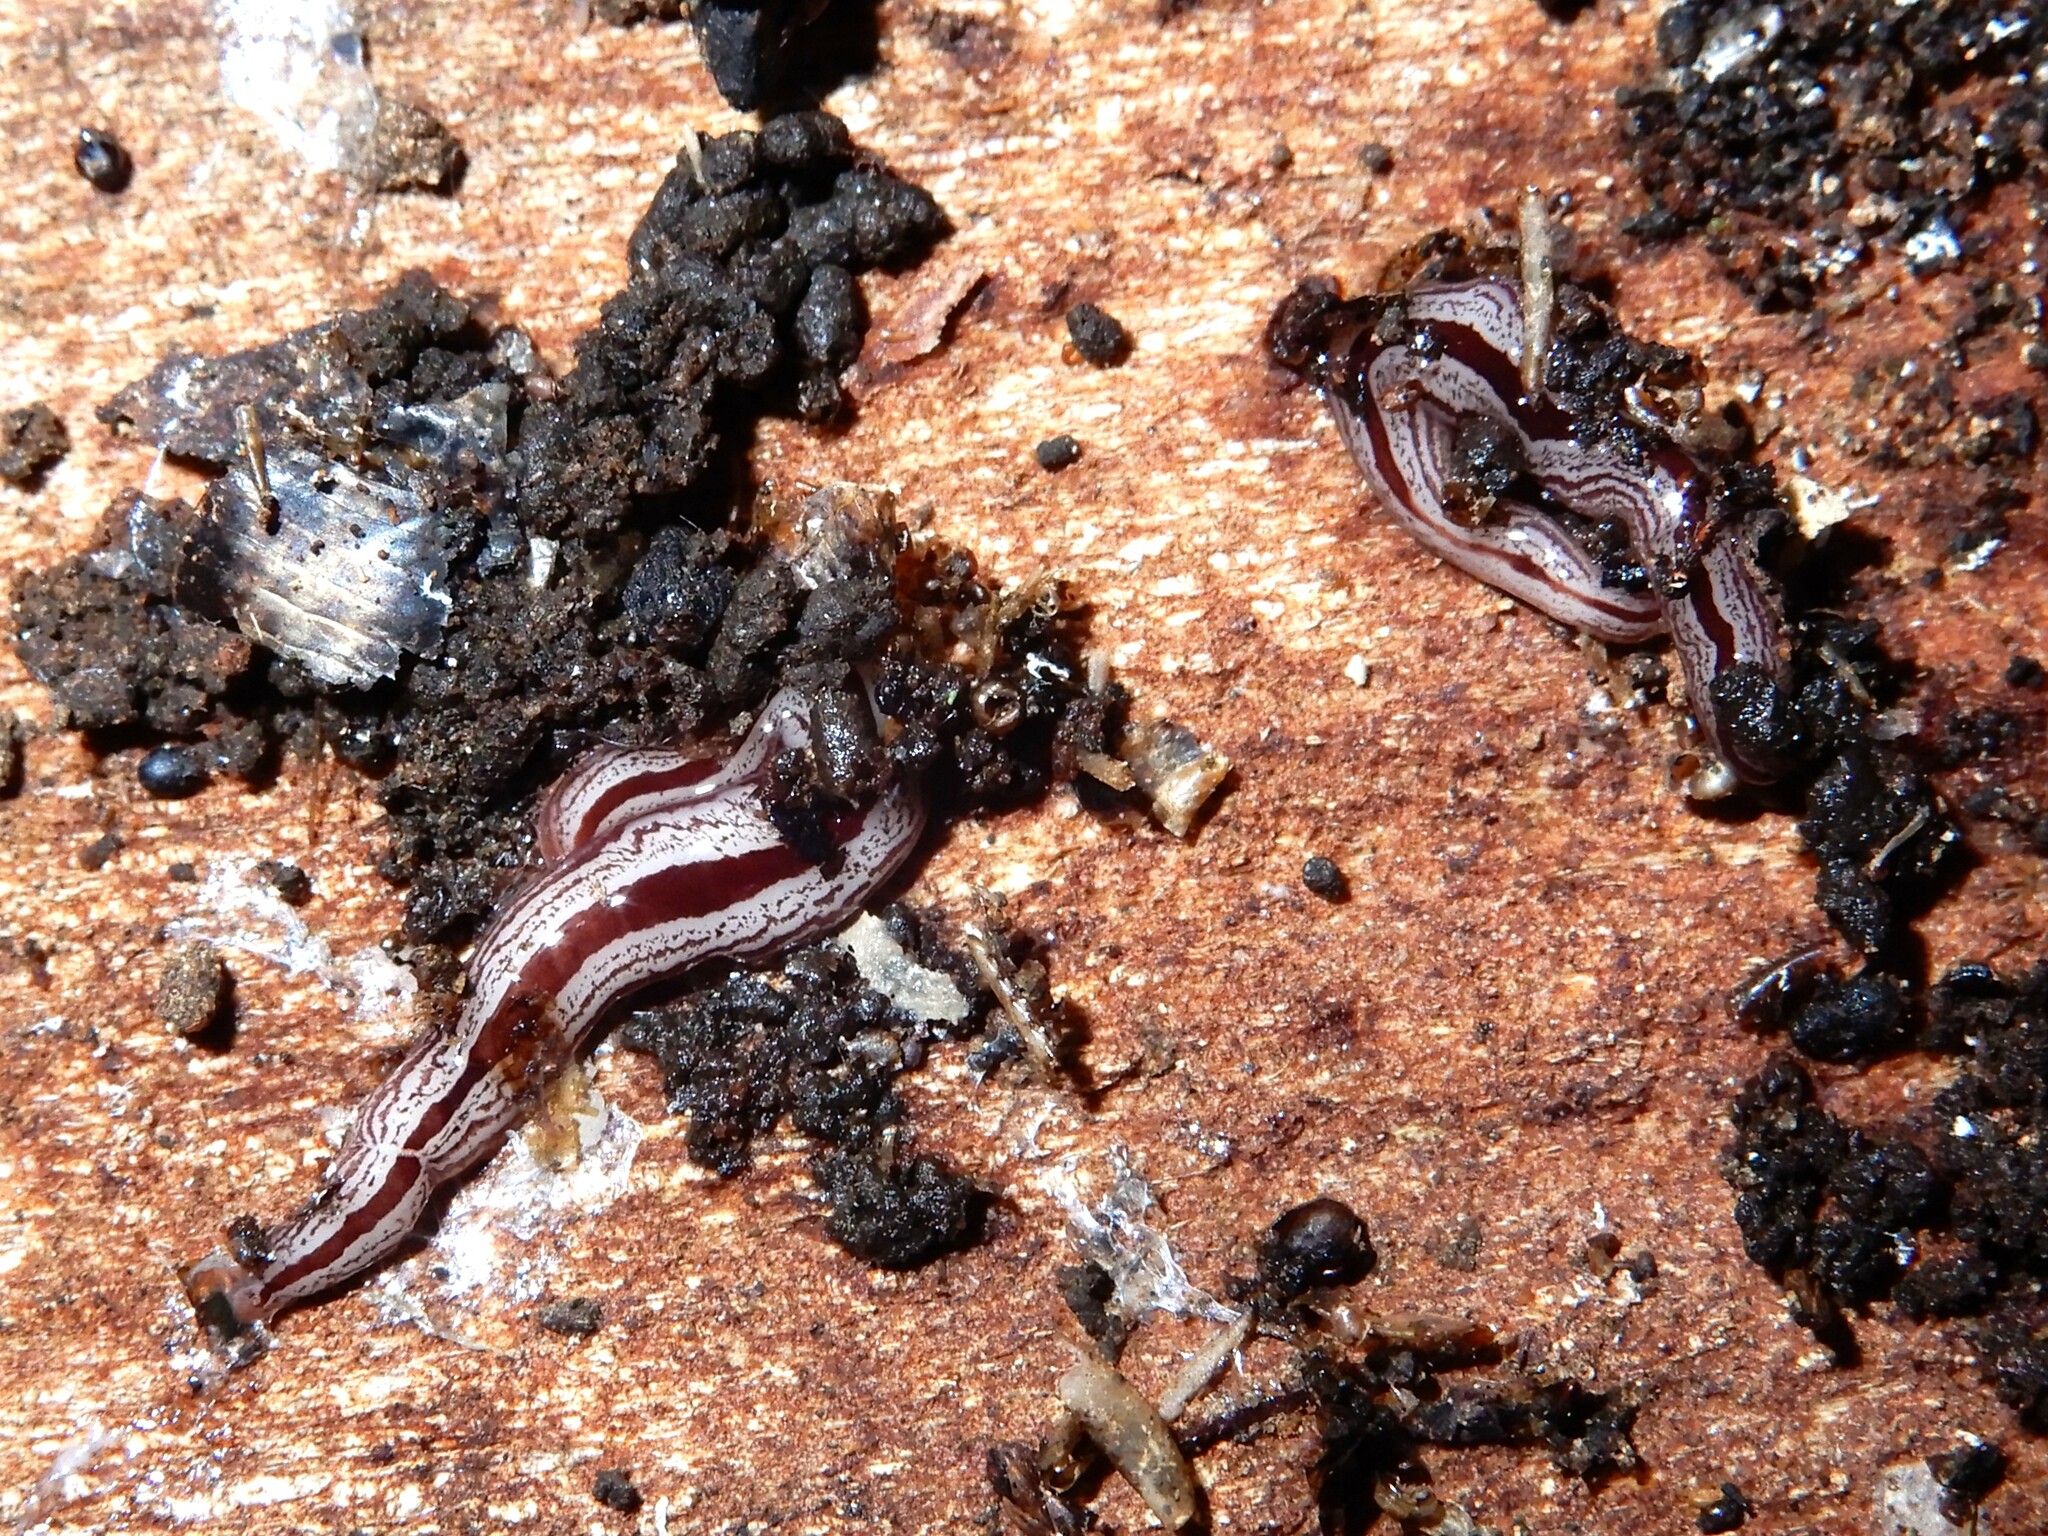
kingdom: Animalia
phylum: Platyhelminthes
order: Tricladida
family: Geoplanidae
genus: Artioposthia
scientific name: Artioposthia exulans
